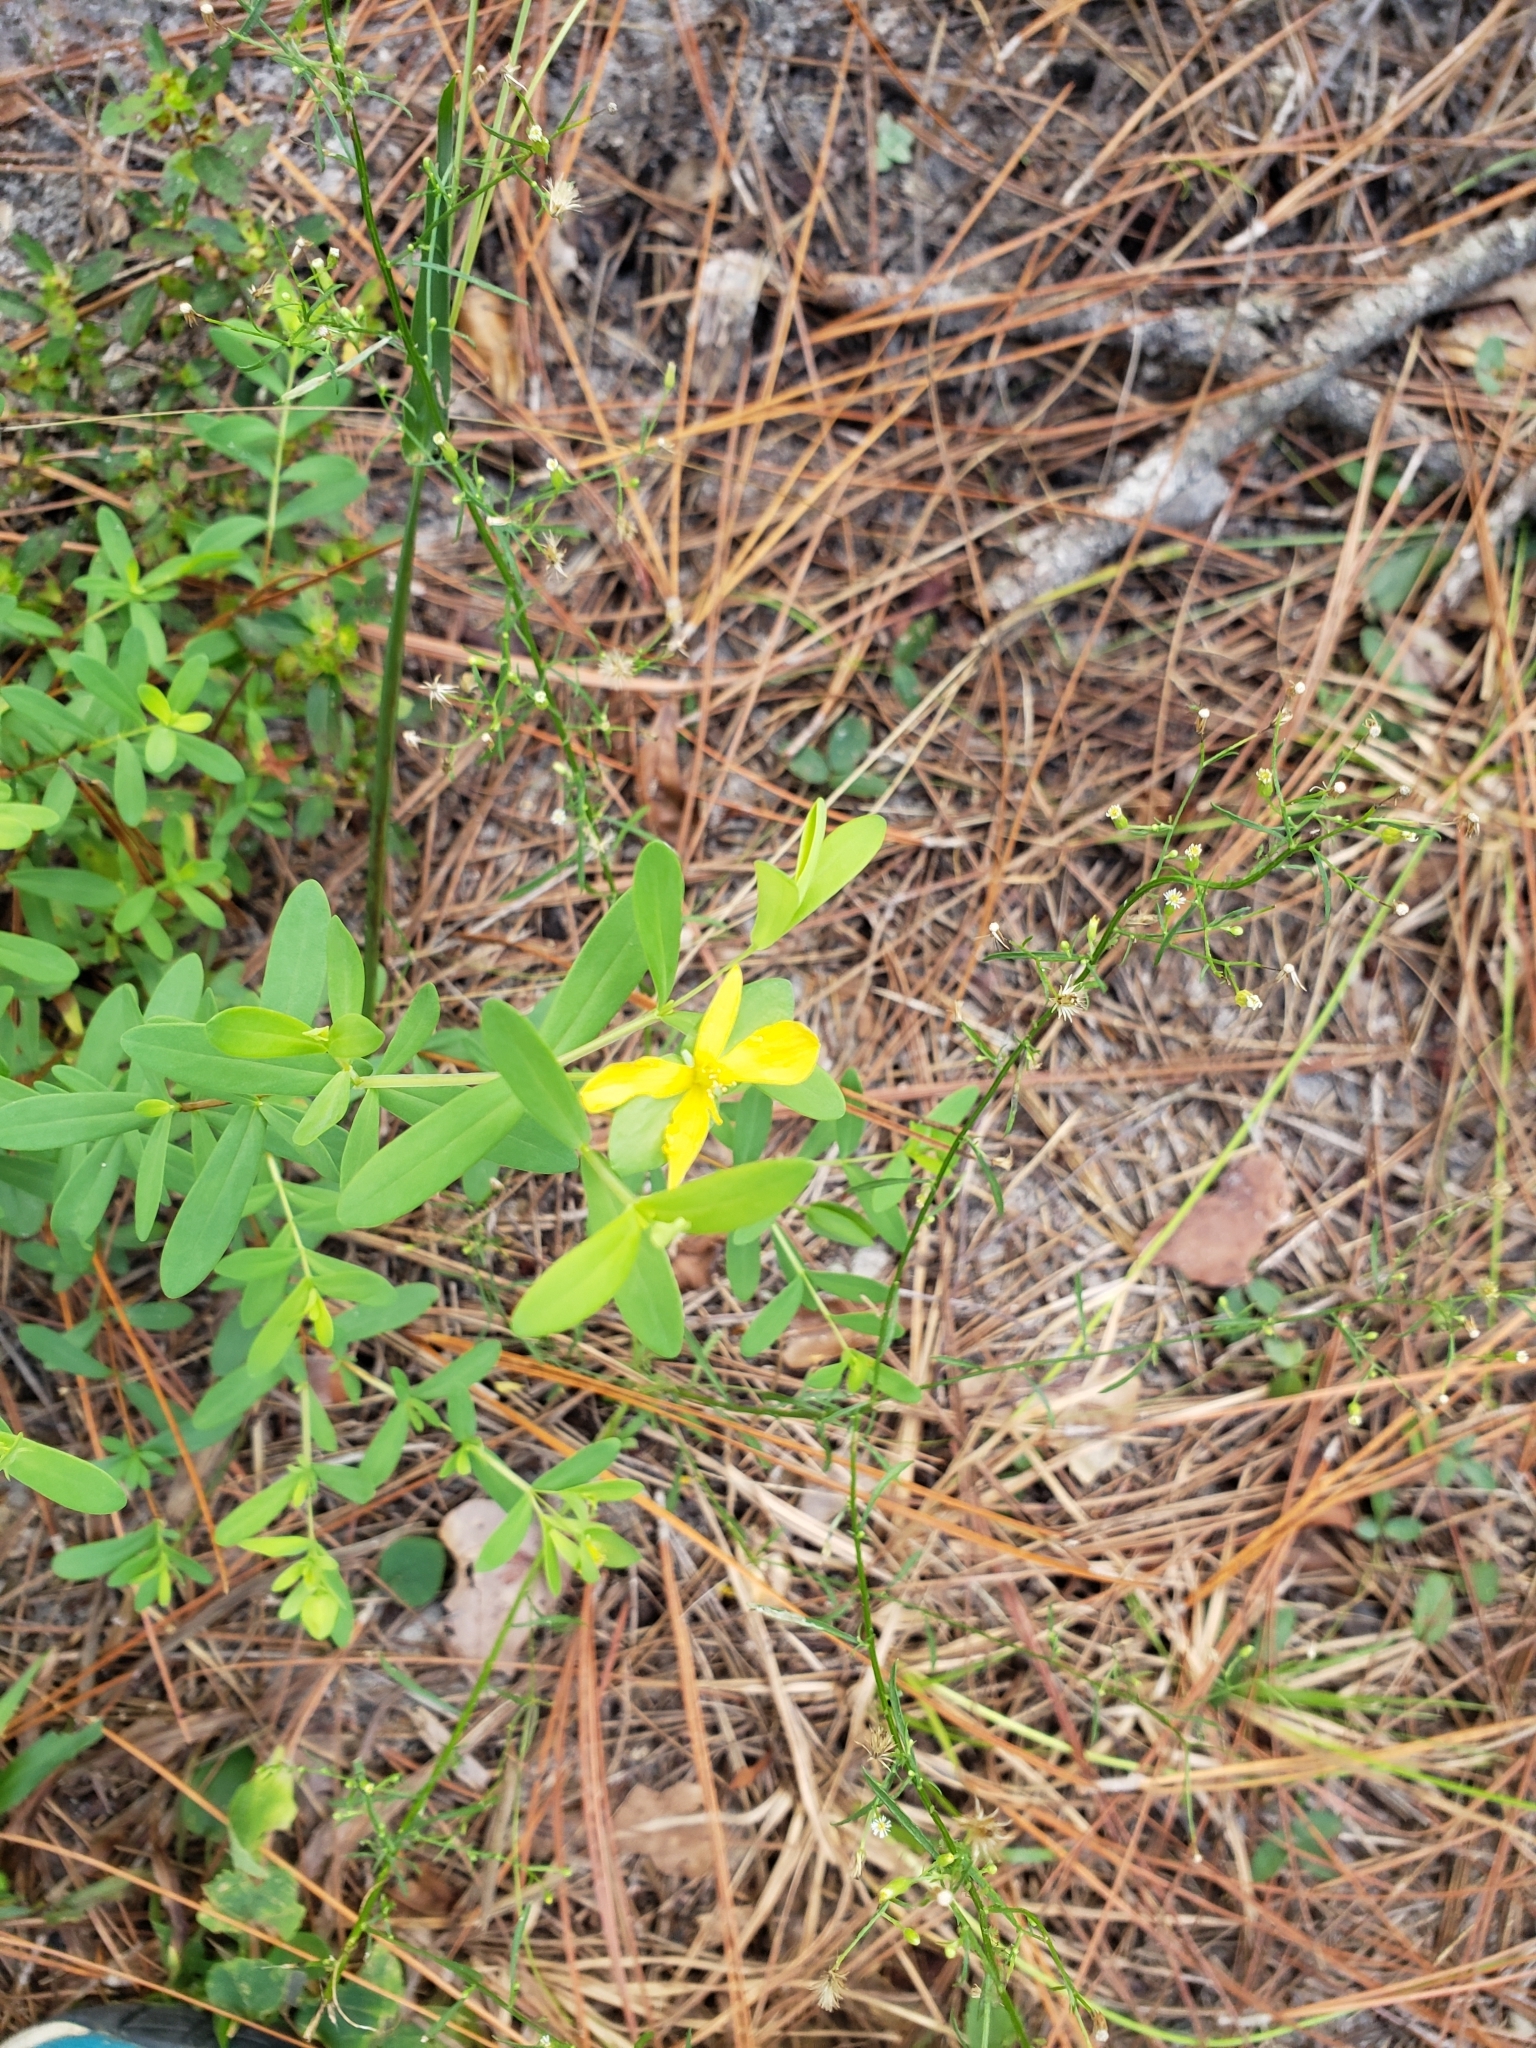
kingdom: Plantae
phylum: Tracheophyta
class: Magnoliopsida
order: Malpighiales
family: Hypericaceae
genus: Hypericum
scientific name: Hypericum hypericoides
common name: St. andrew's cross
